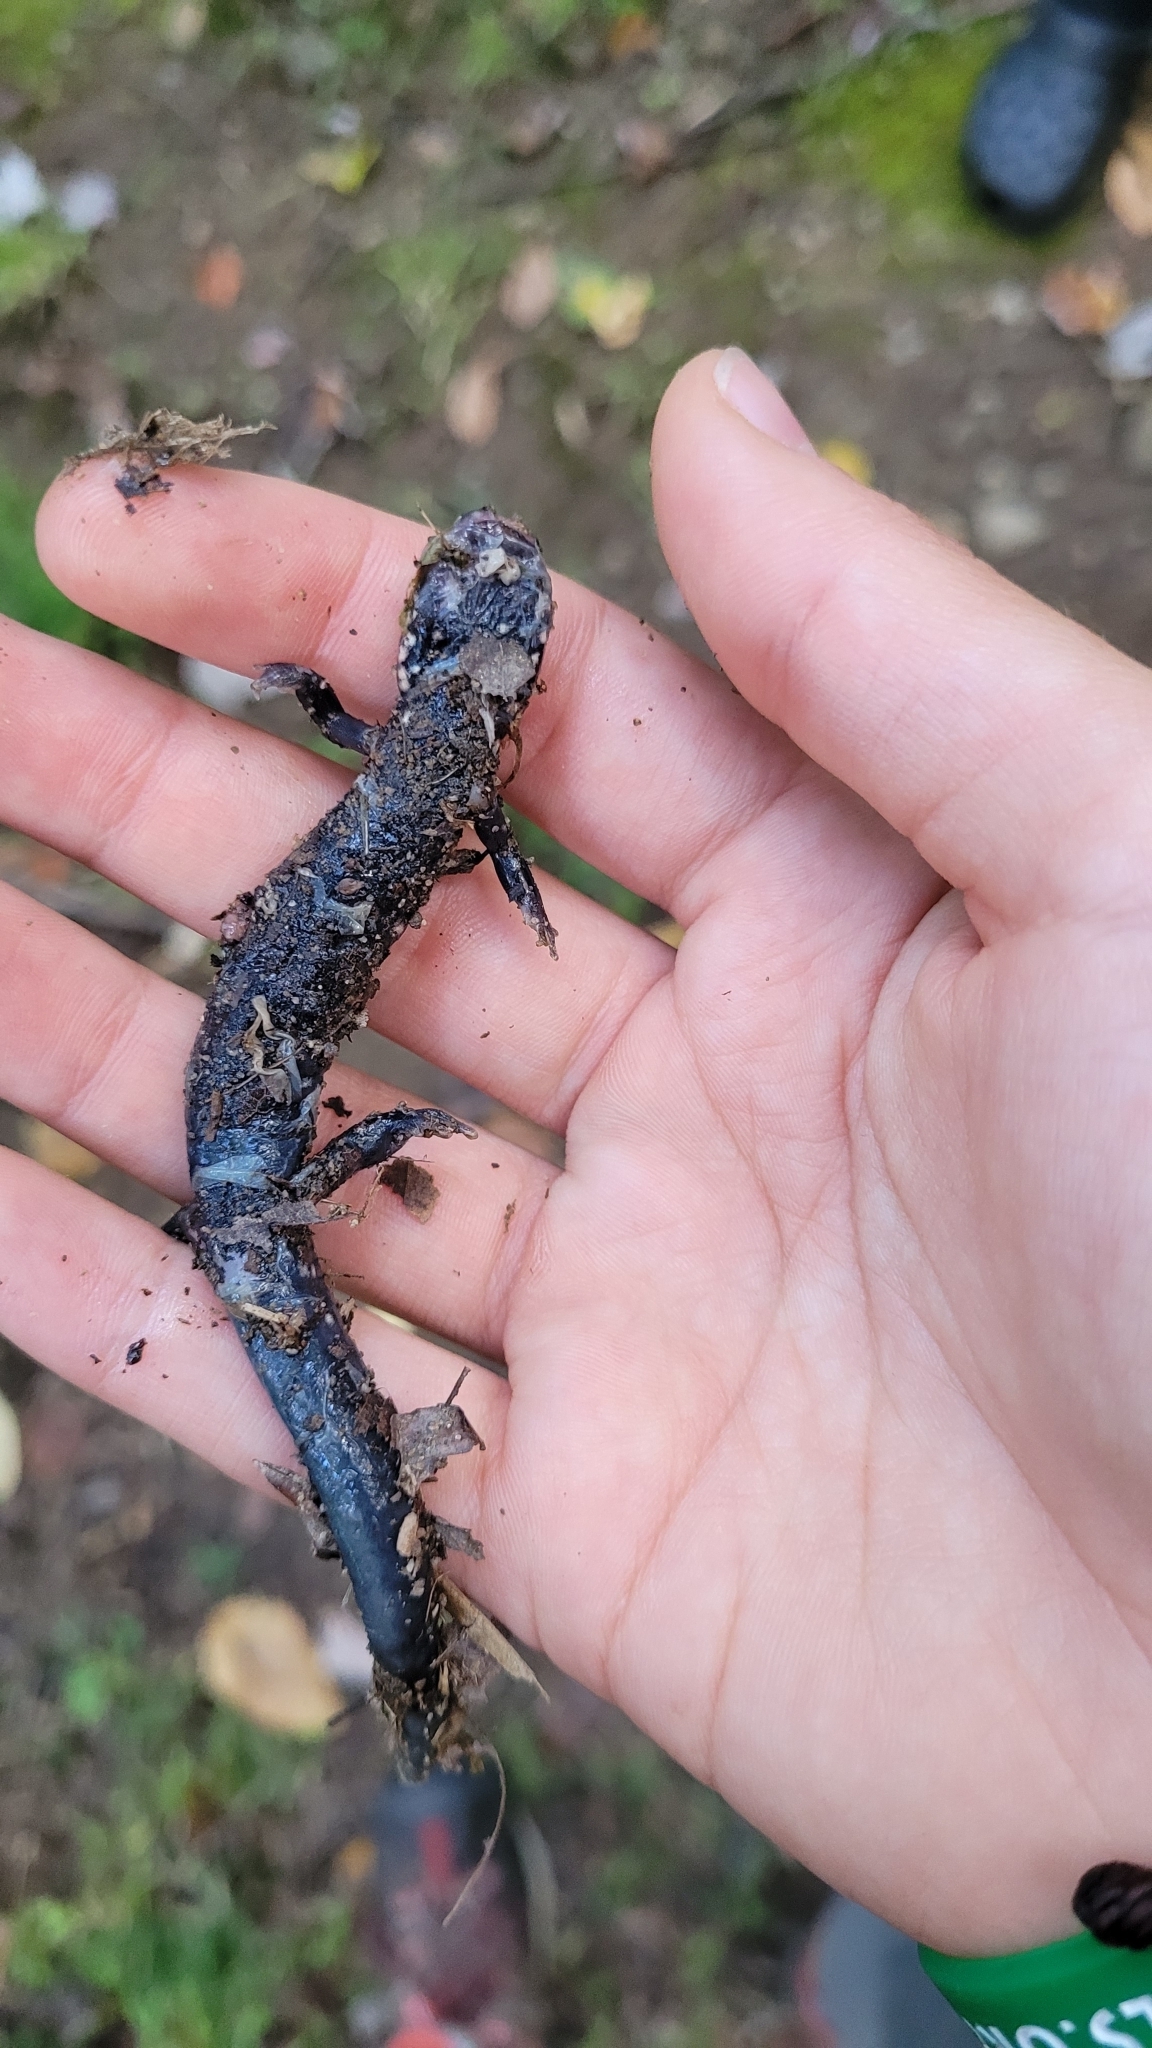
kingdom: Animalia
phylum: Chordata
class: Amphibia
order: Caudata
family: Plethodontidae
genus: Plethodon
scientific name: Plethodon glutinosus
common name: Northern slimy salamander
